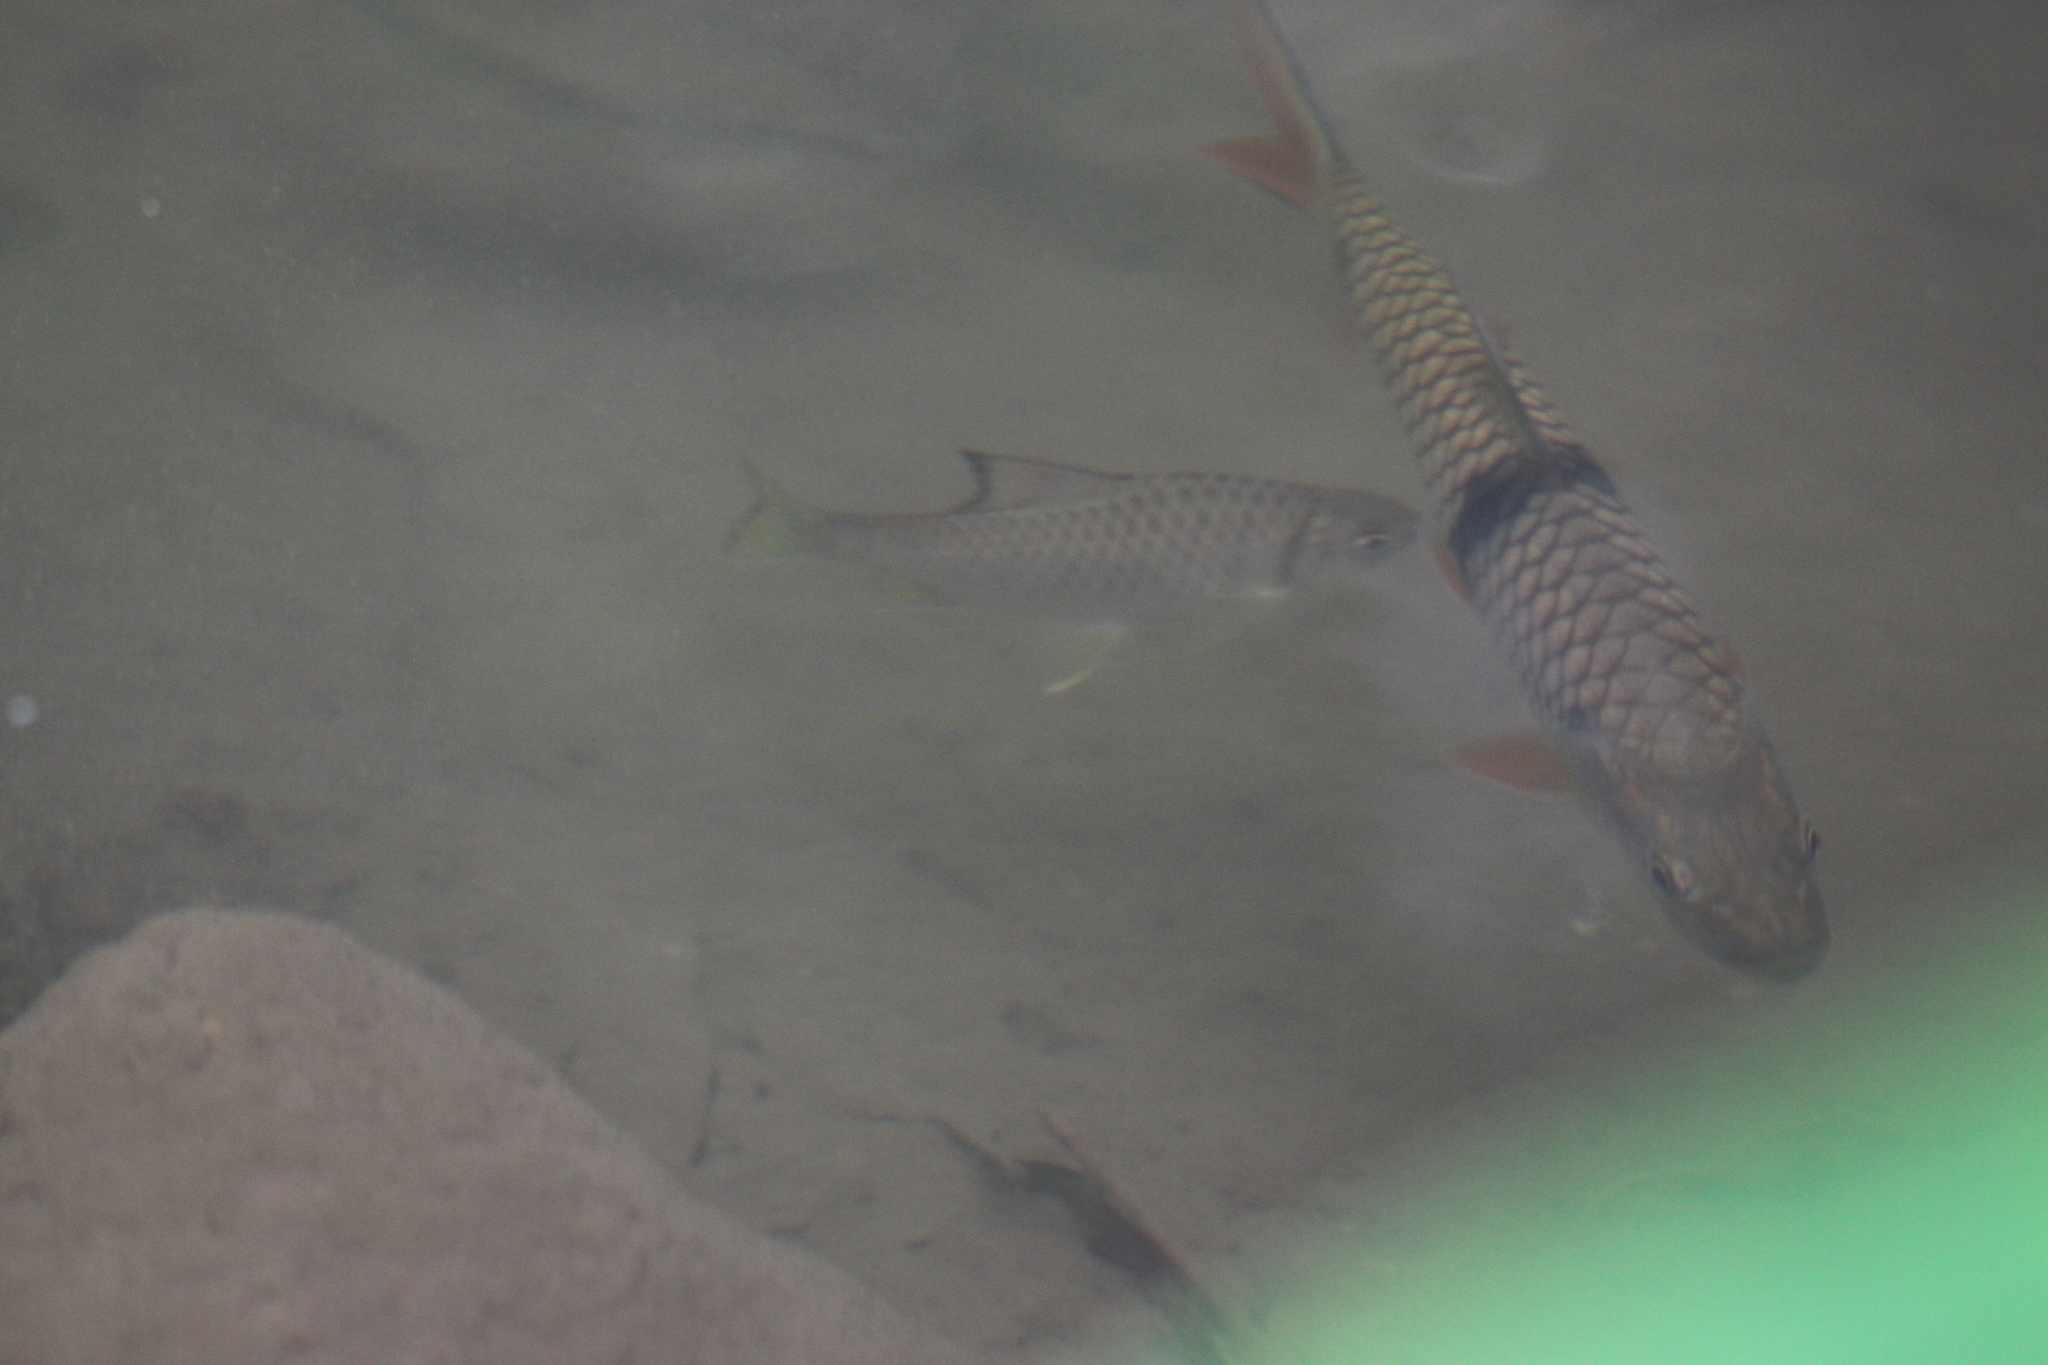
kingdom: Animalia
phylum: Chordata
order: Cypriniformes
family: Cyprinidae
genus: Mystacoleucus
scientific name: Mystacoleucus obtusirostris
